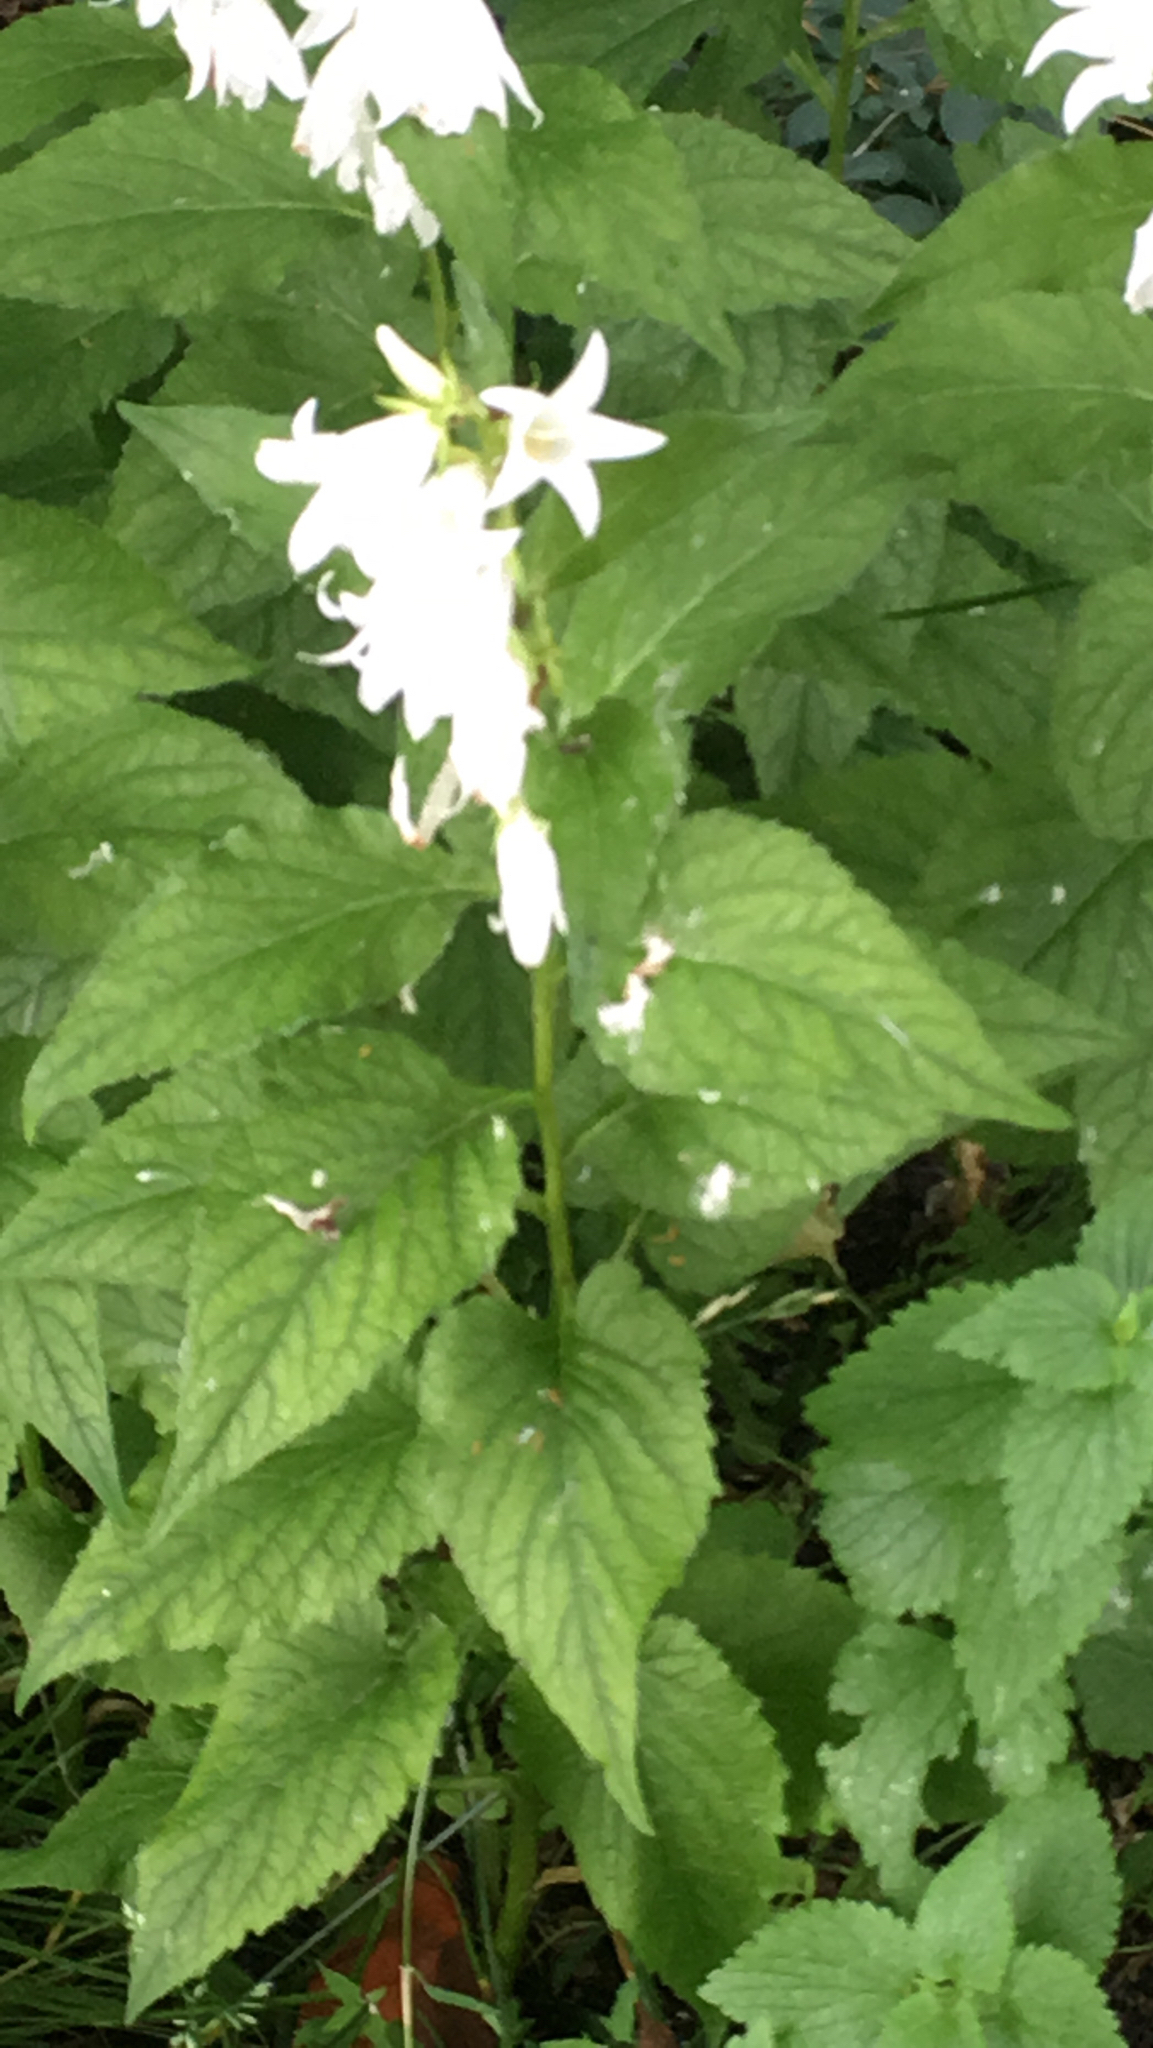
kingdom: Plantae
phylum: Tracheophyta
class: Magnoliopsida
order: Asterales
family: Campanulaceae
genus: Campanula
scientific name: Campanula latifolia
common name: Giant bellflower
